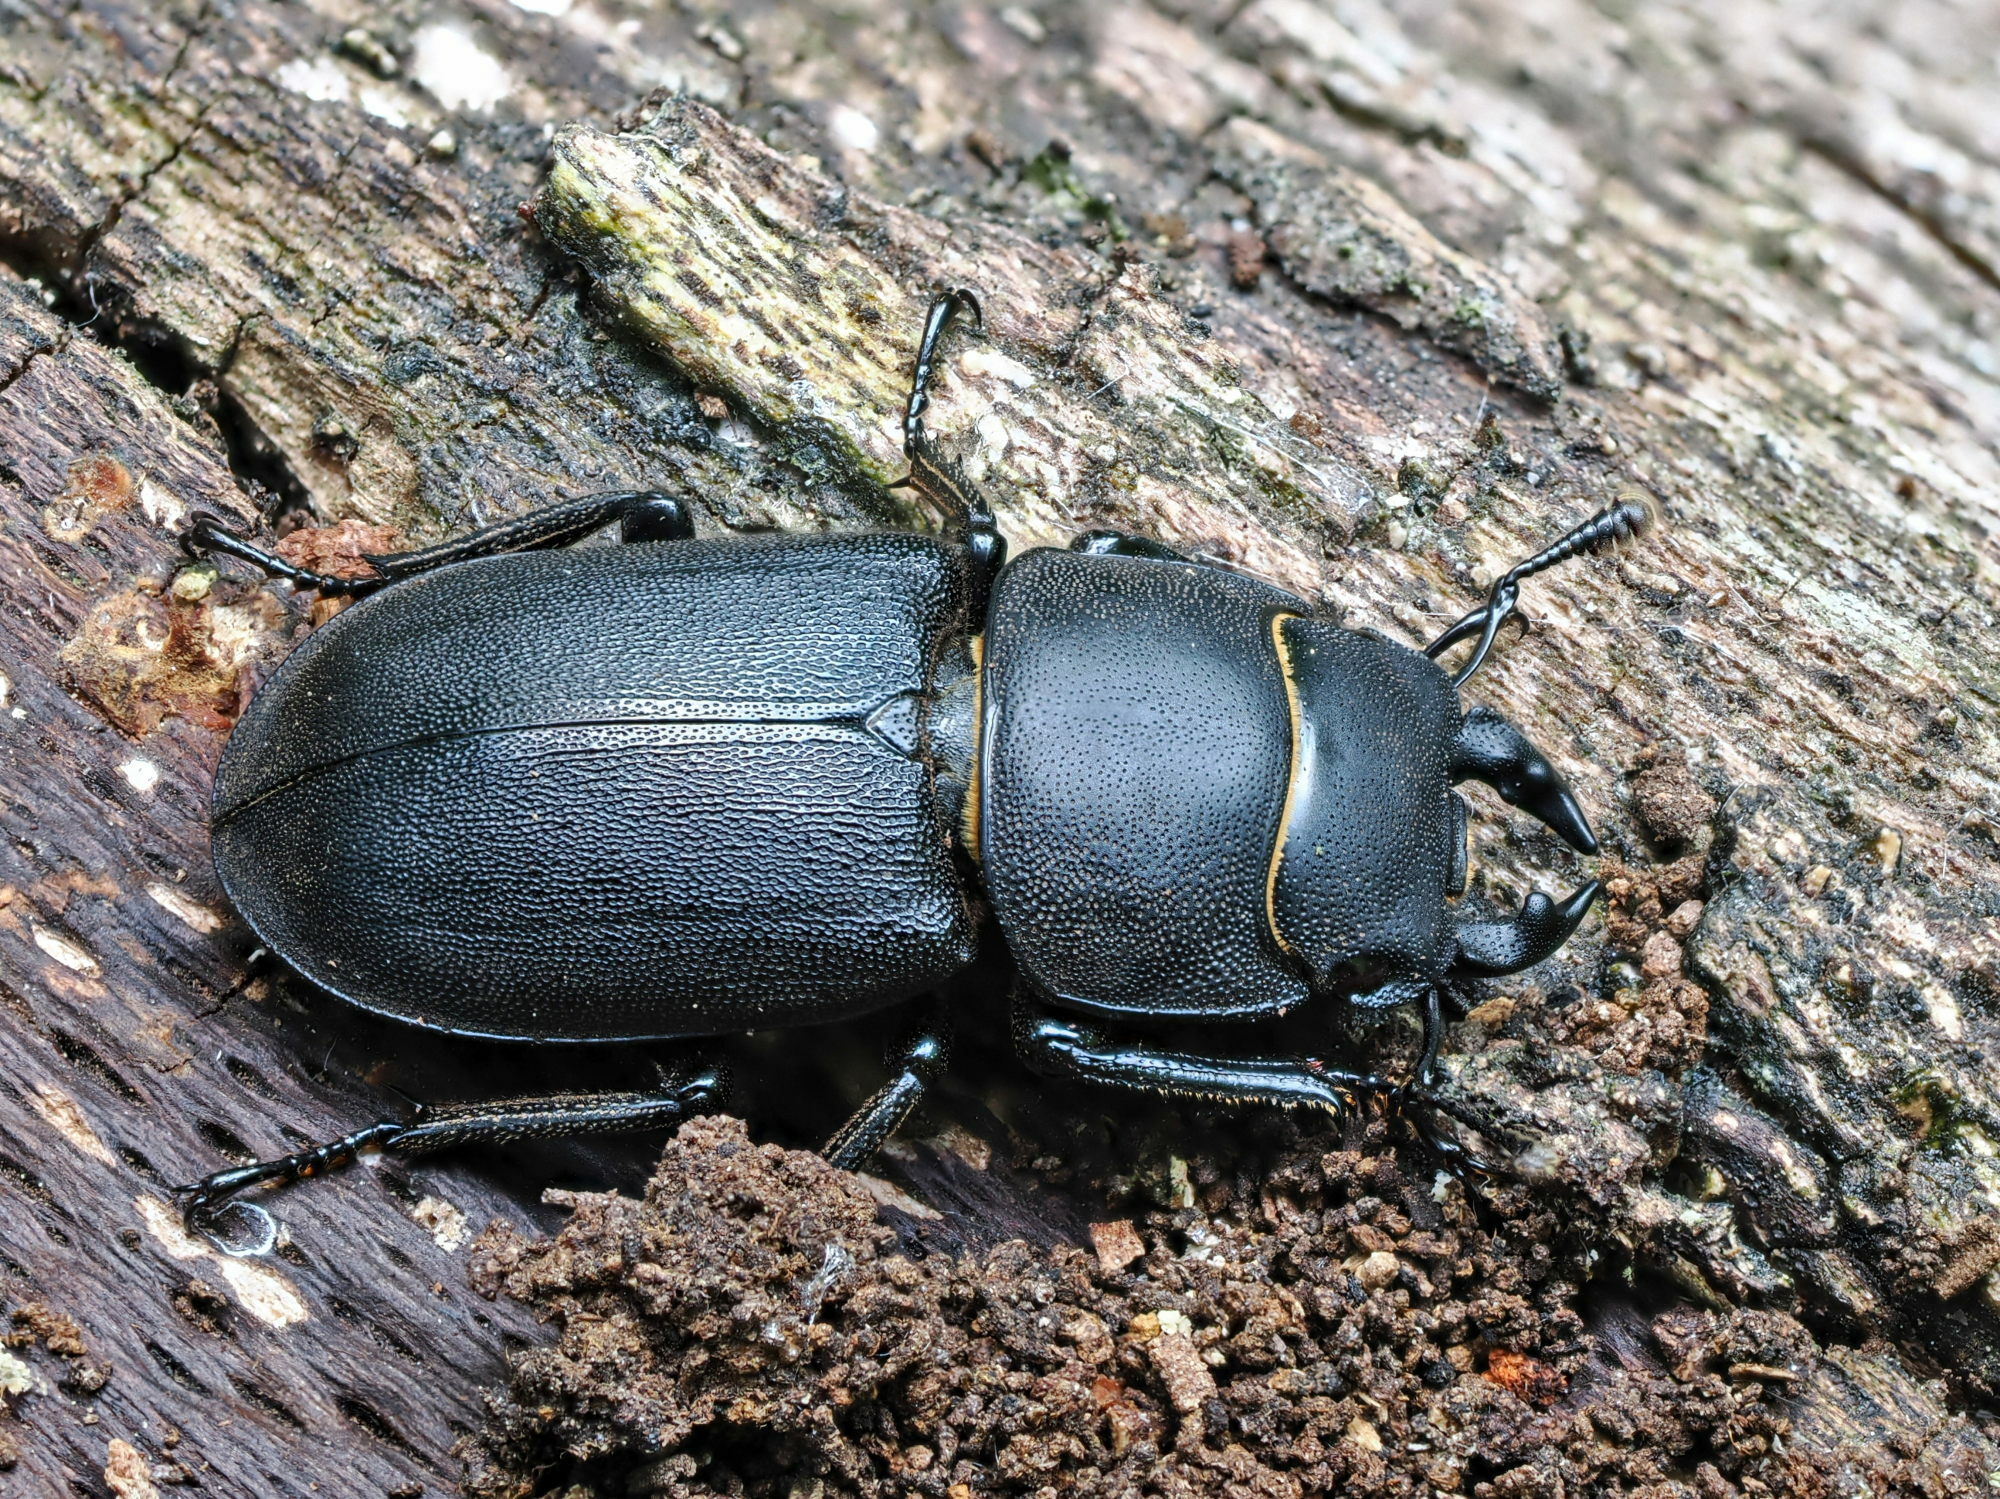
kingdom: Animalia
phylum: Arthropoda
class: Insecta
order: Coleoptera
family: Lucanidae
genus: Dorcus
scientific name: Dorcus parallelipipedus
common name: Lesser stag beetle
